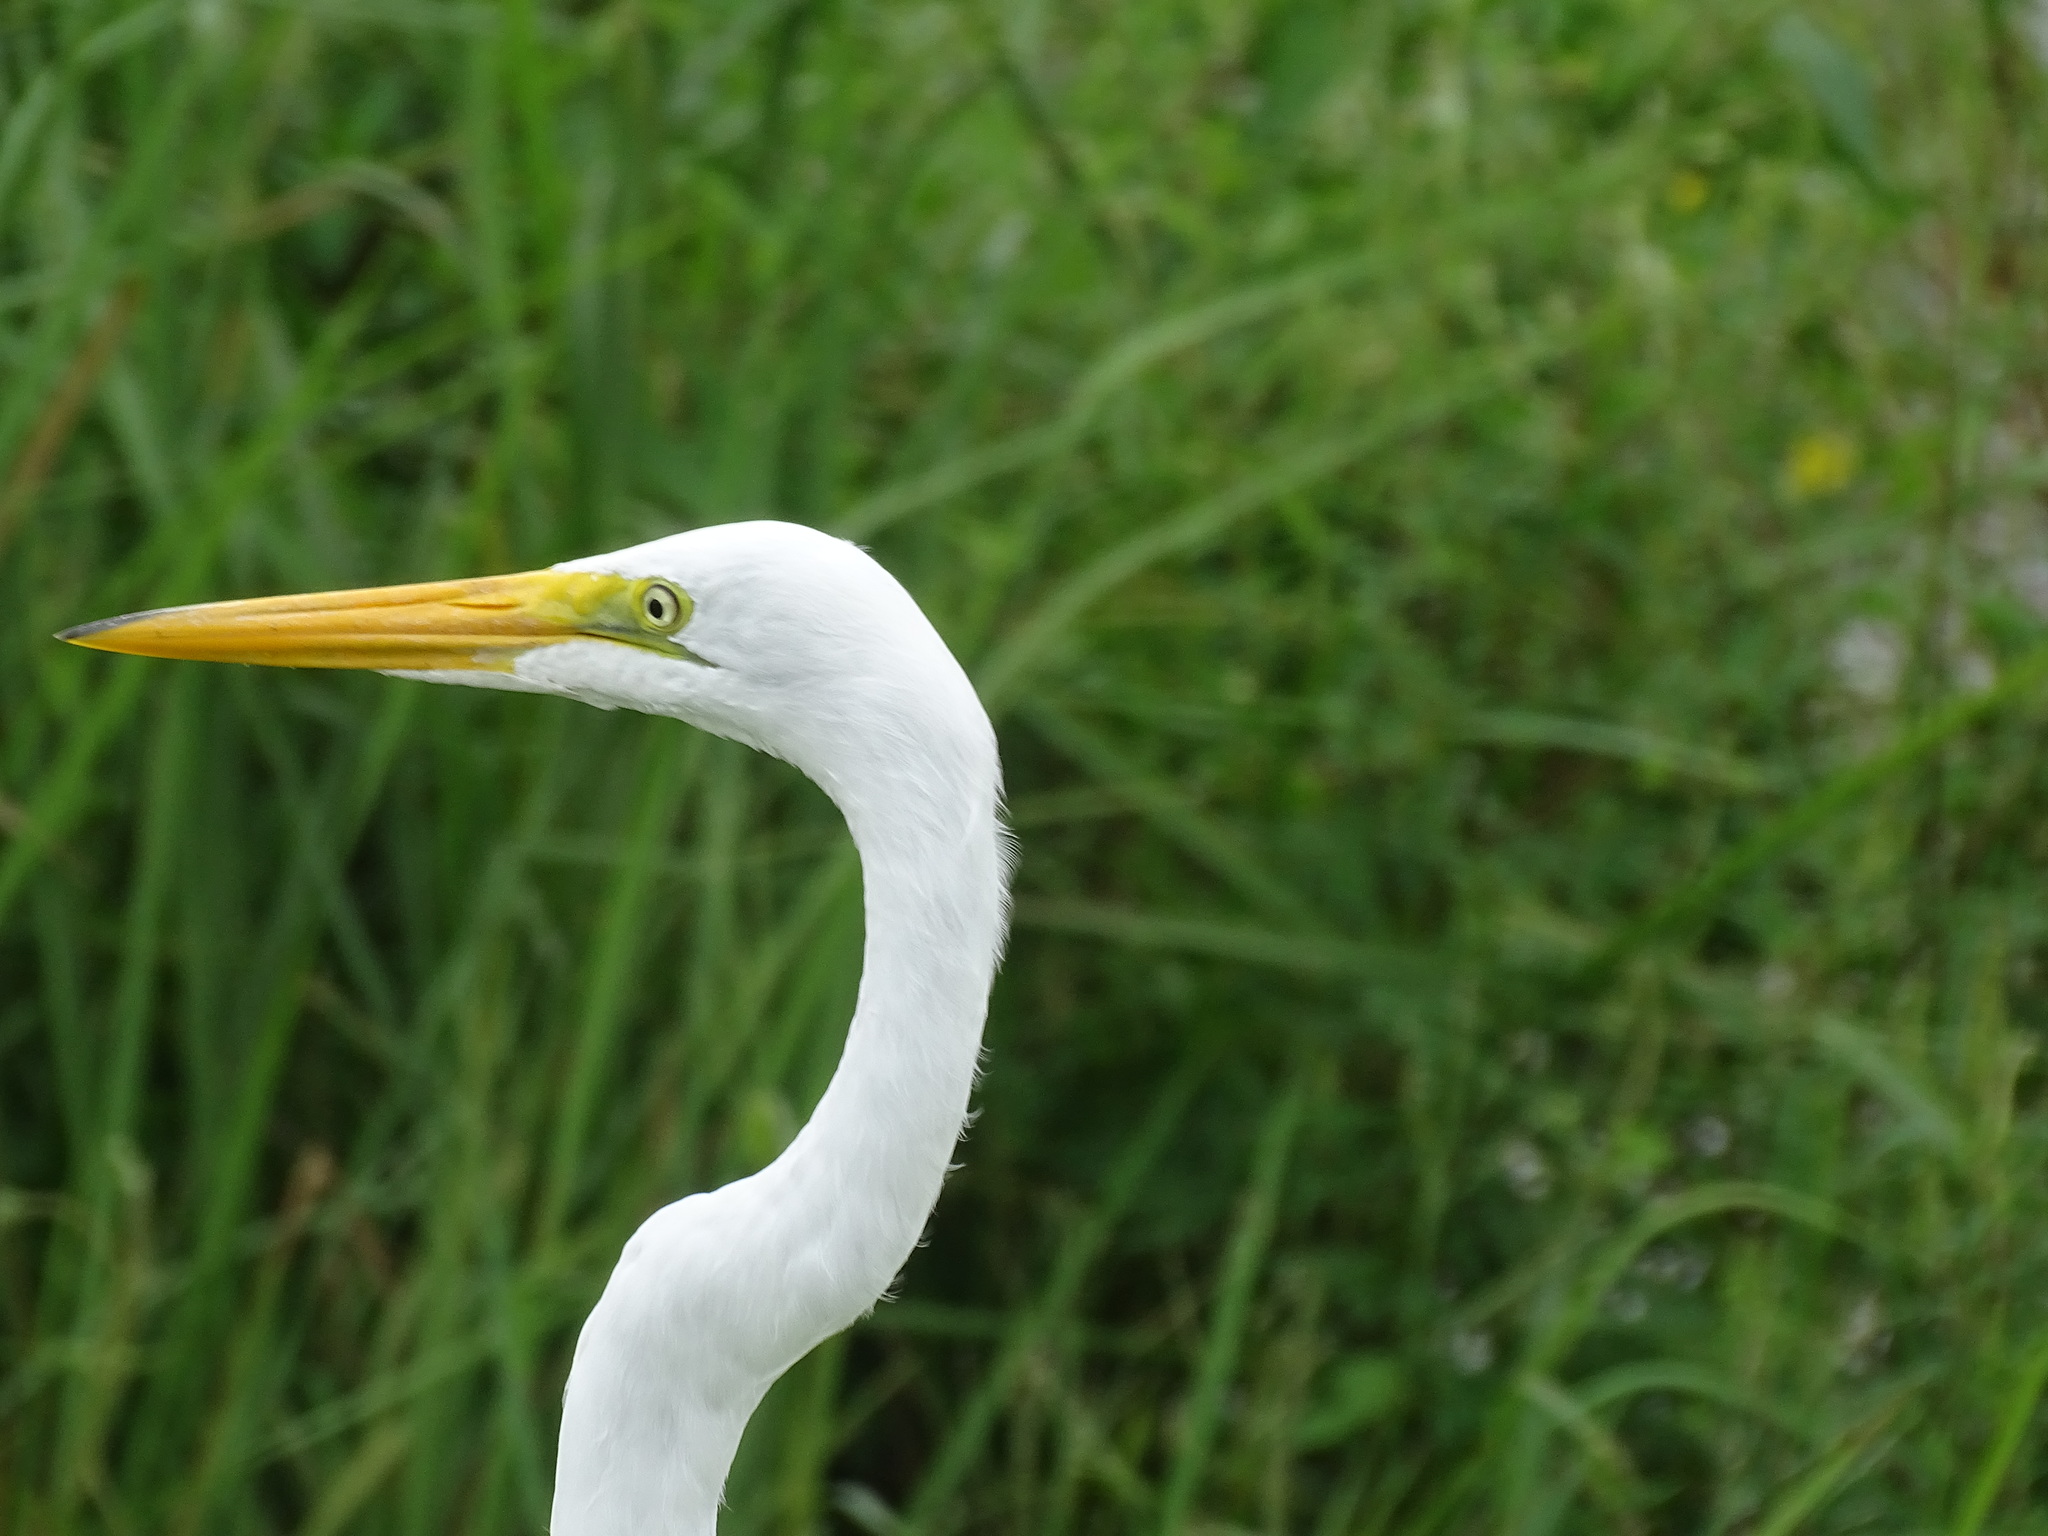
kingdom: Animalia
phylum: Chordata
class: Aves
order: Pelecaniformes
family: Ardeidae
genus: Ardea
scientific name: Ardea alba
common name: Great egret
